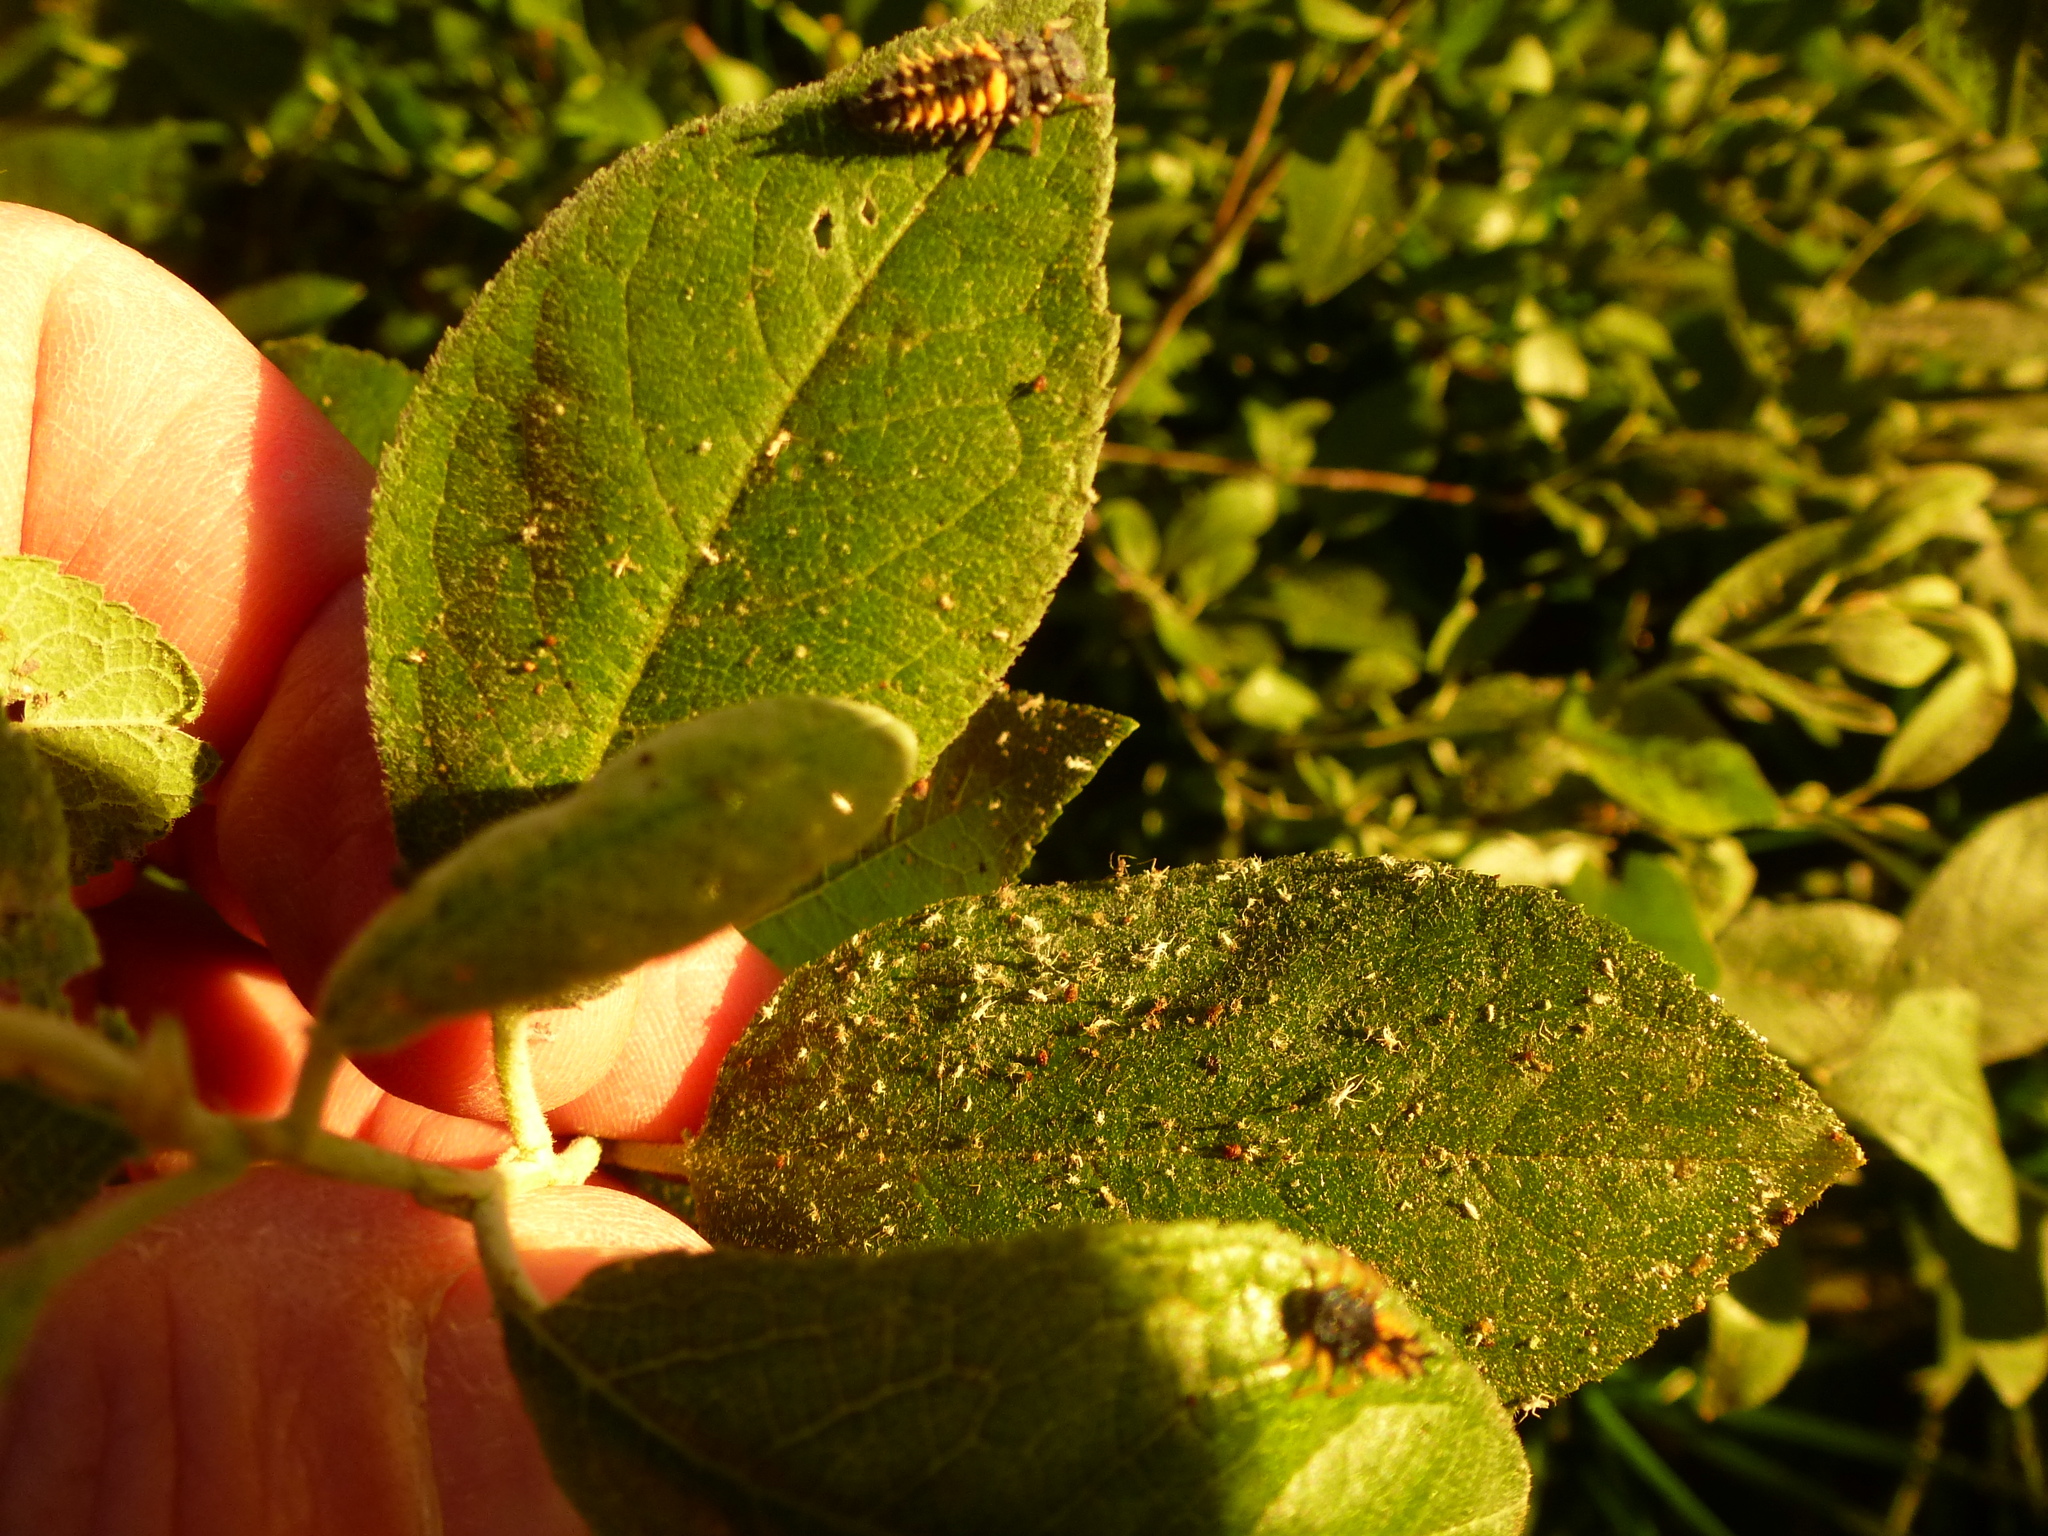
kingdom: Animalia
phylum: Arthropoda
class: Insecta
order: Coleoptera
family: Coccinellidae
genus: Harmonia
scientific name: Harmonia axyridis
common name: Harlequin ladybird
